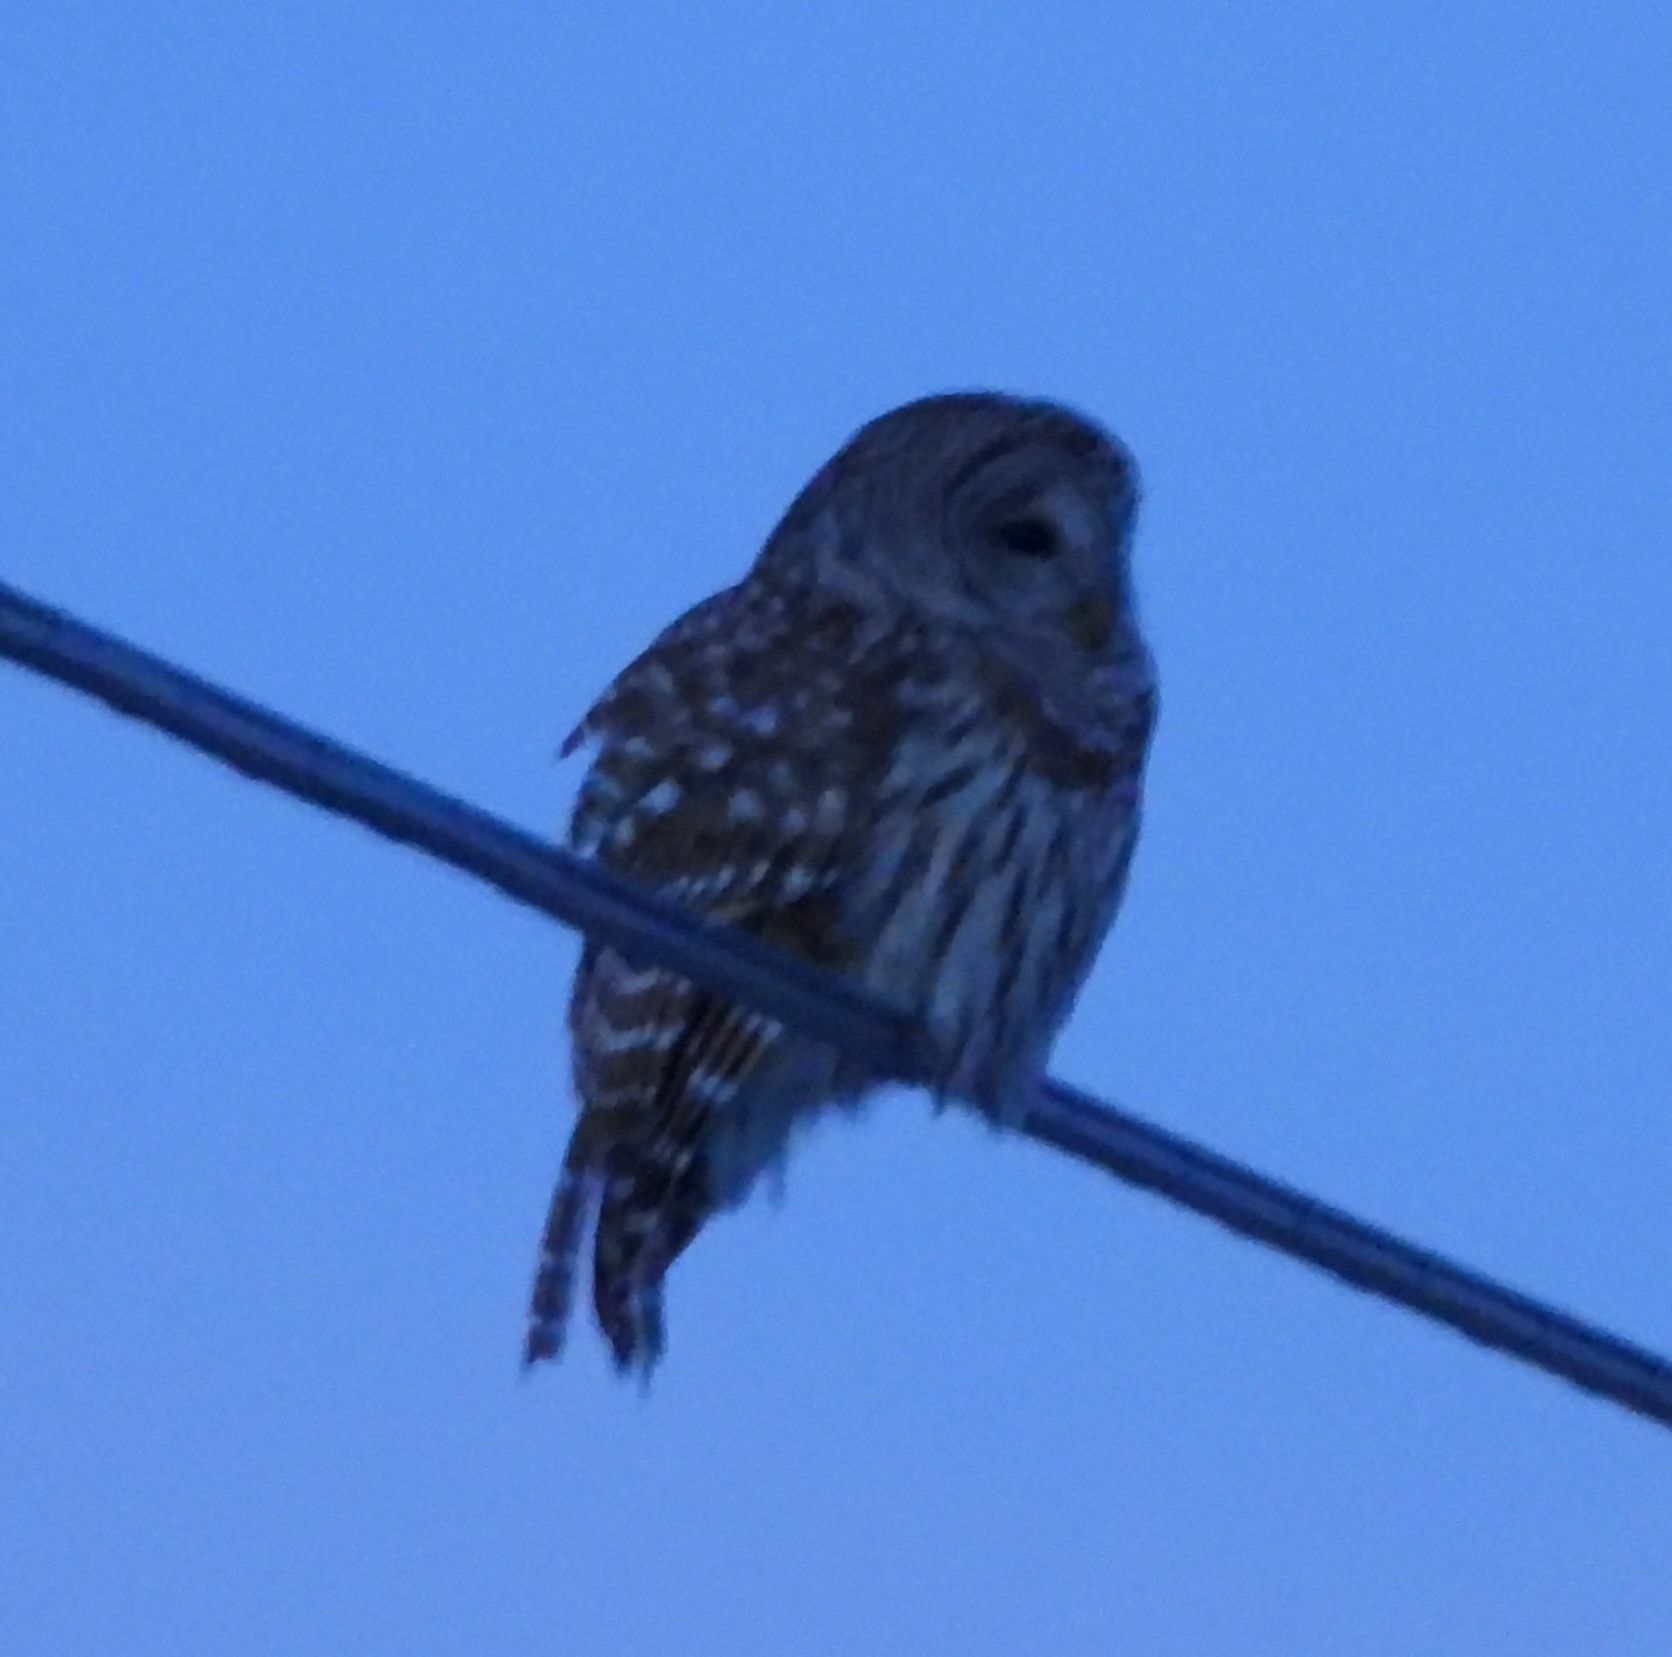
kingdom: Animalia
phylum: Chordata
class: Aves
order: Strigiformes
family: Strigidae
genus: Strix
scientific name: Strix varia
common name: Barred owl
